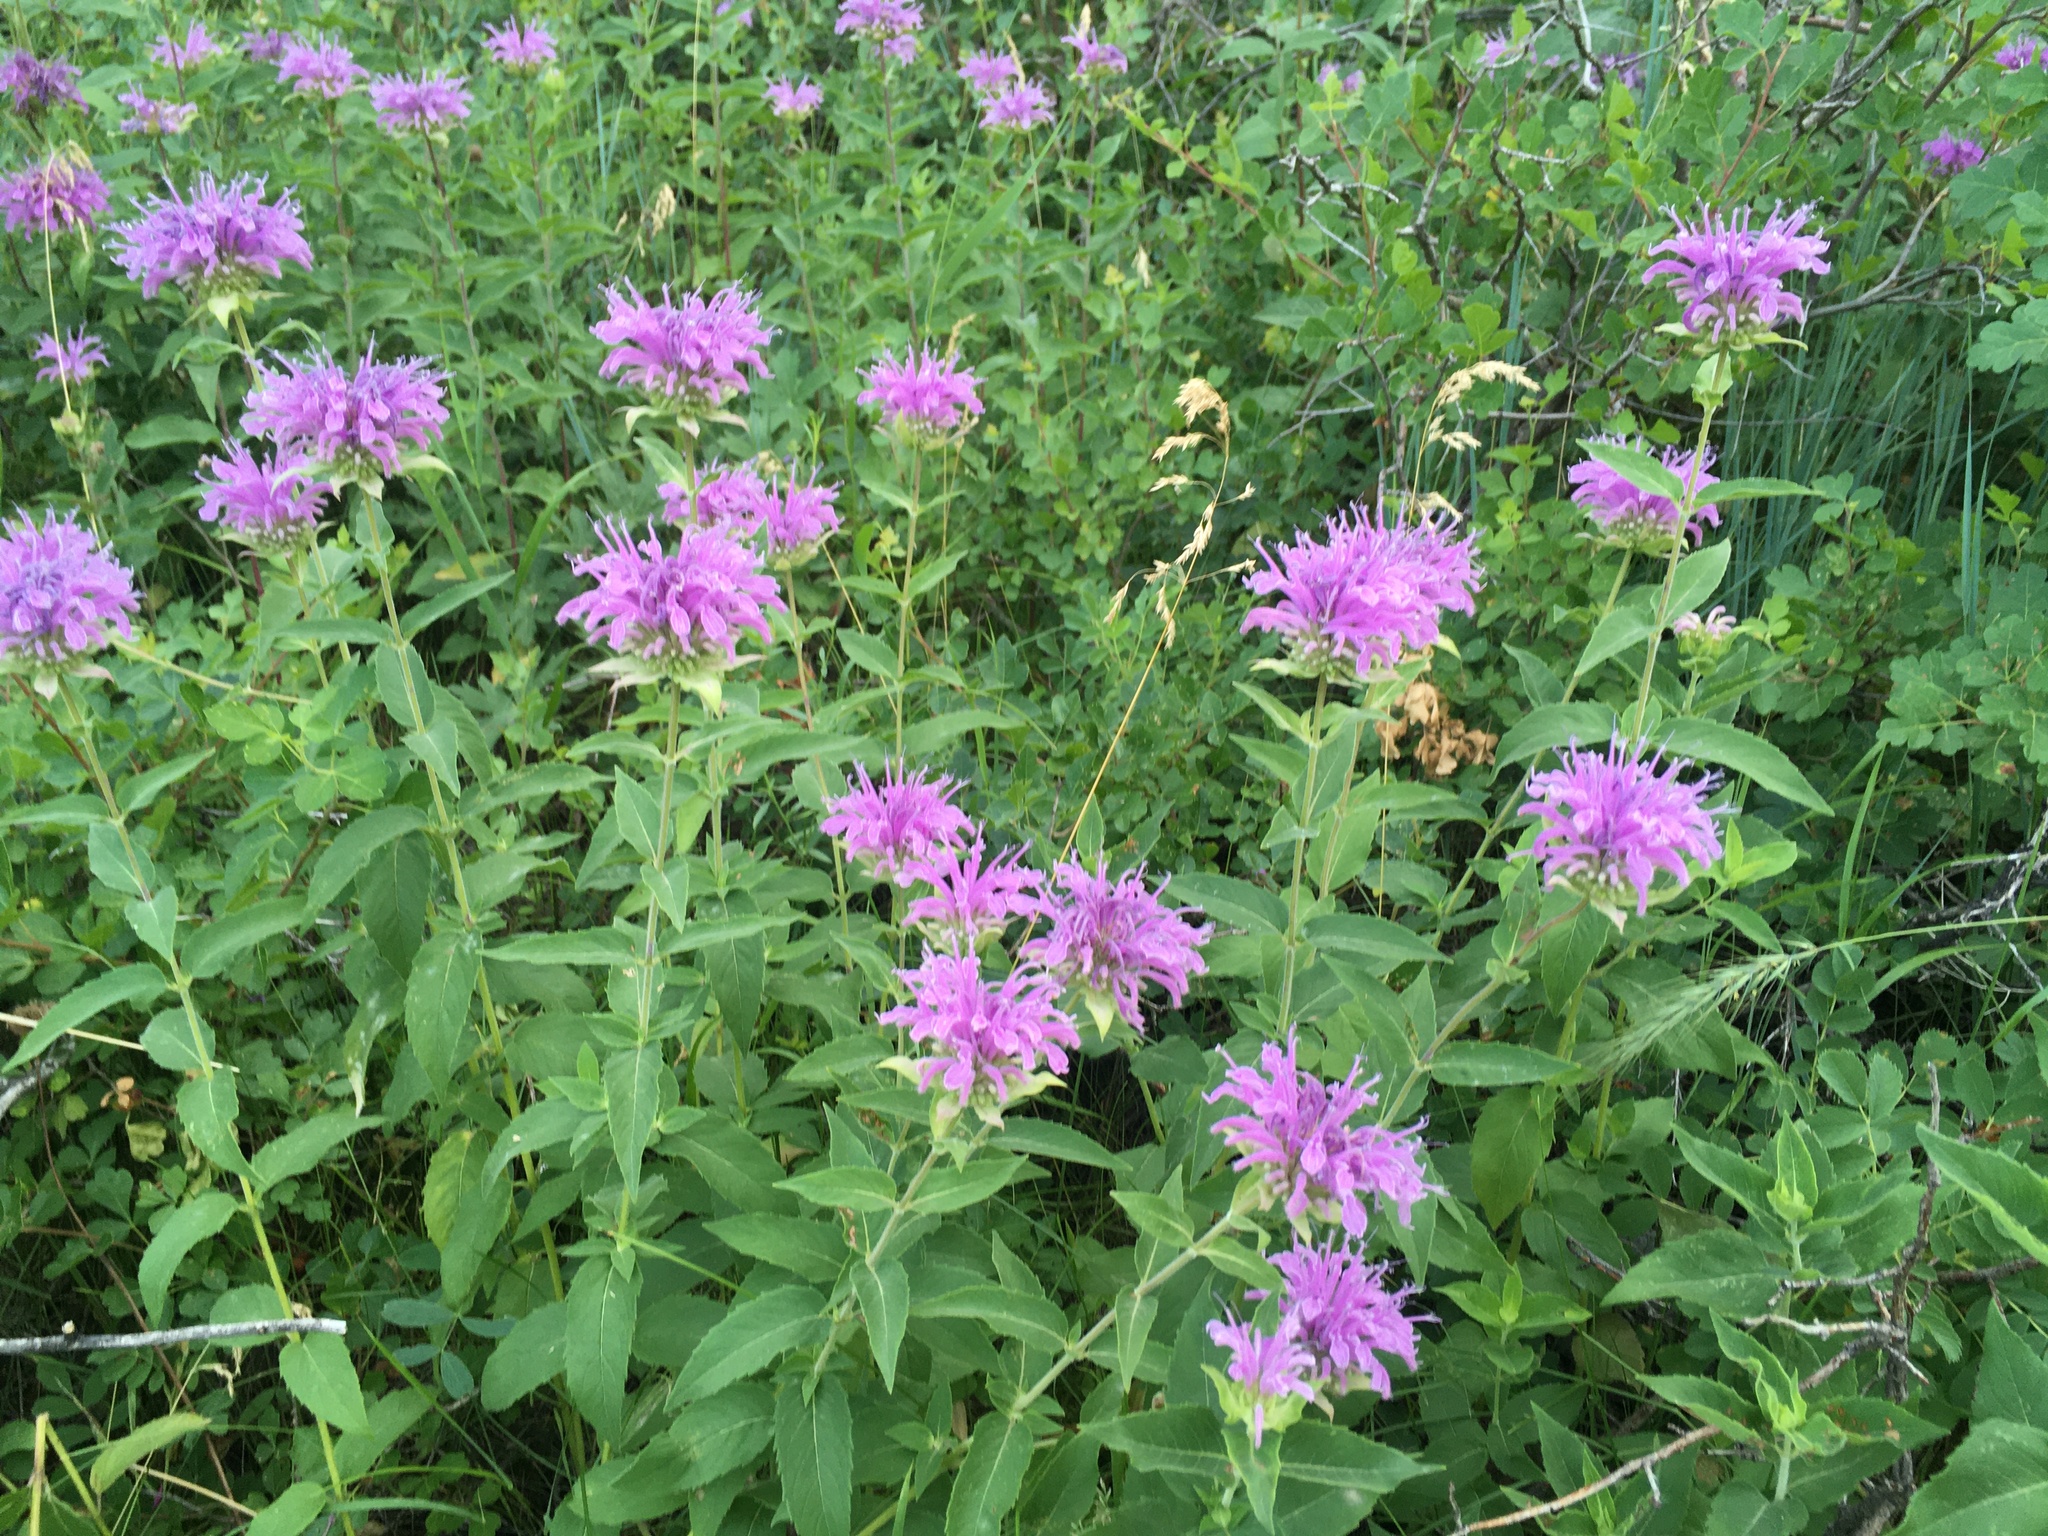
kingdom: Plantae
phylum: Tracheophyta
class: Magnoliopsida
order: Lamiales
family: Lamiaceae
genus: Monarda
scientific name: Monarda fistulosa
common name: Purple beebalm
